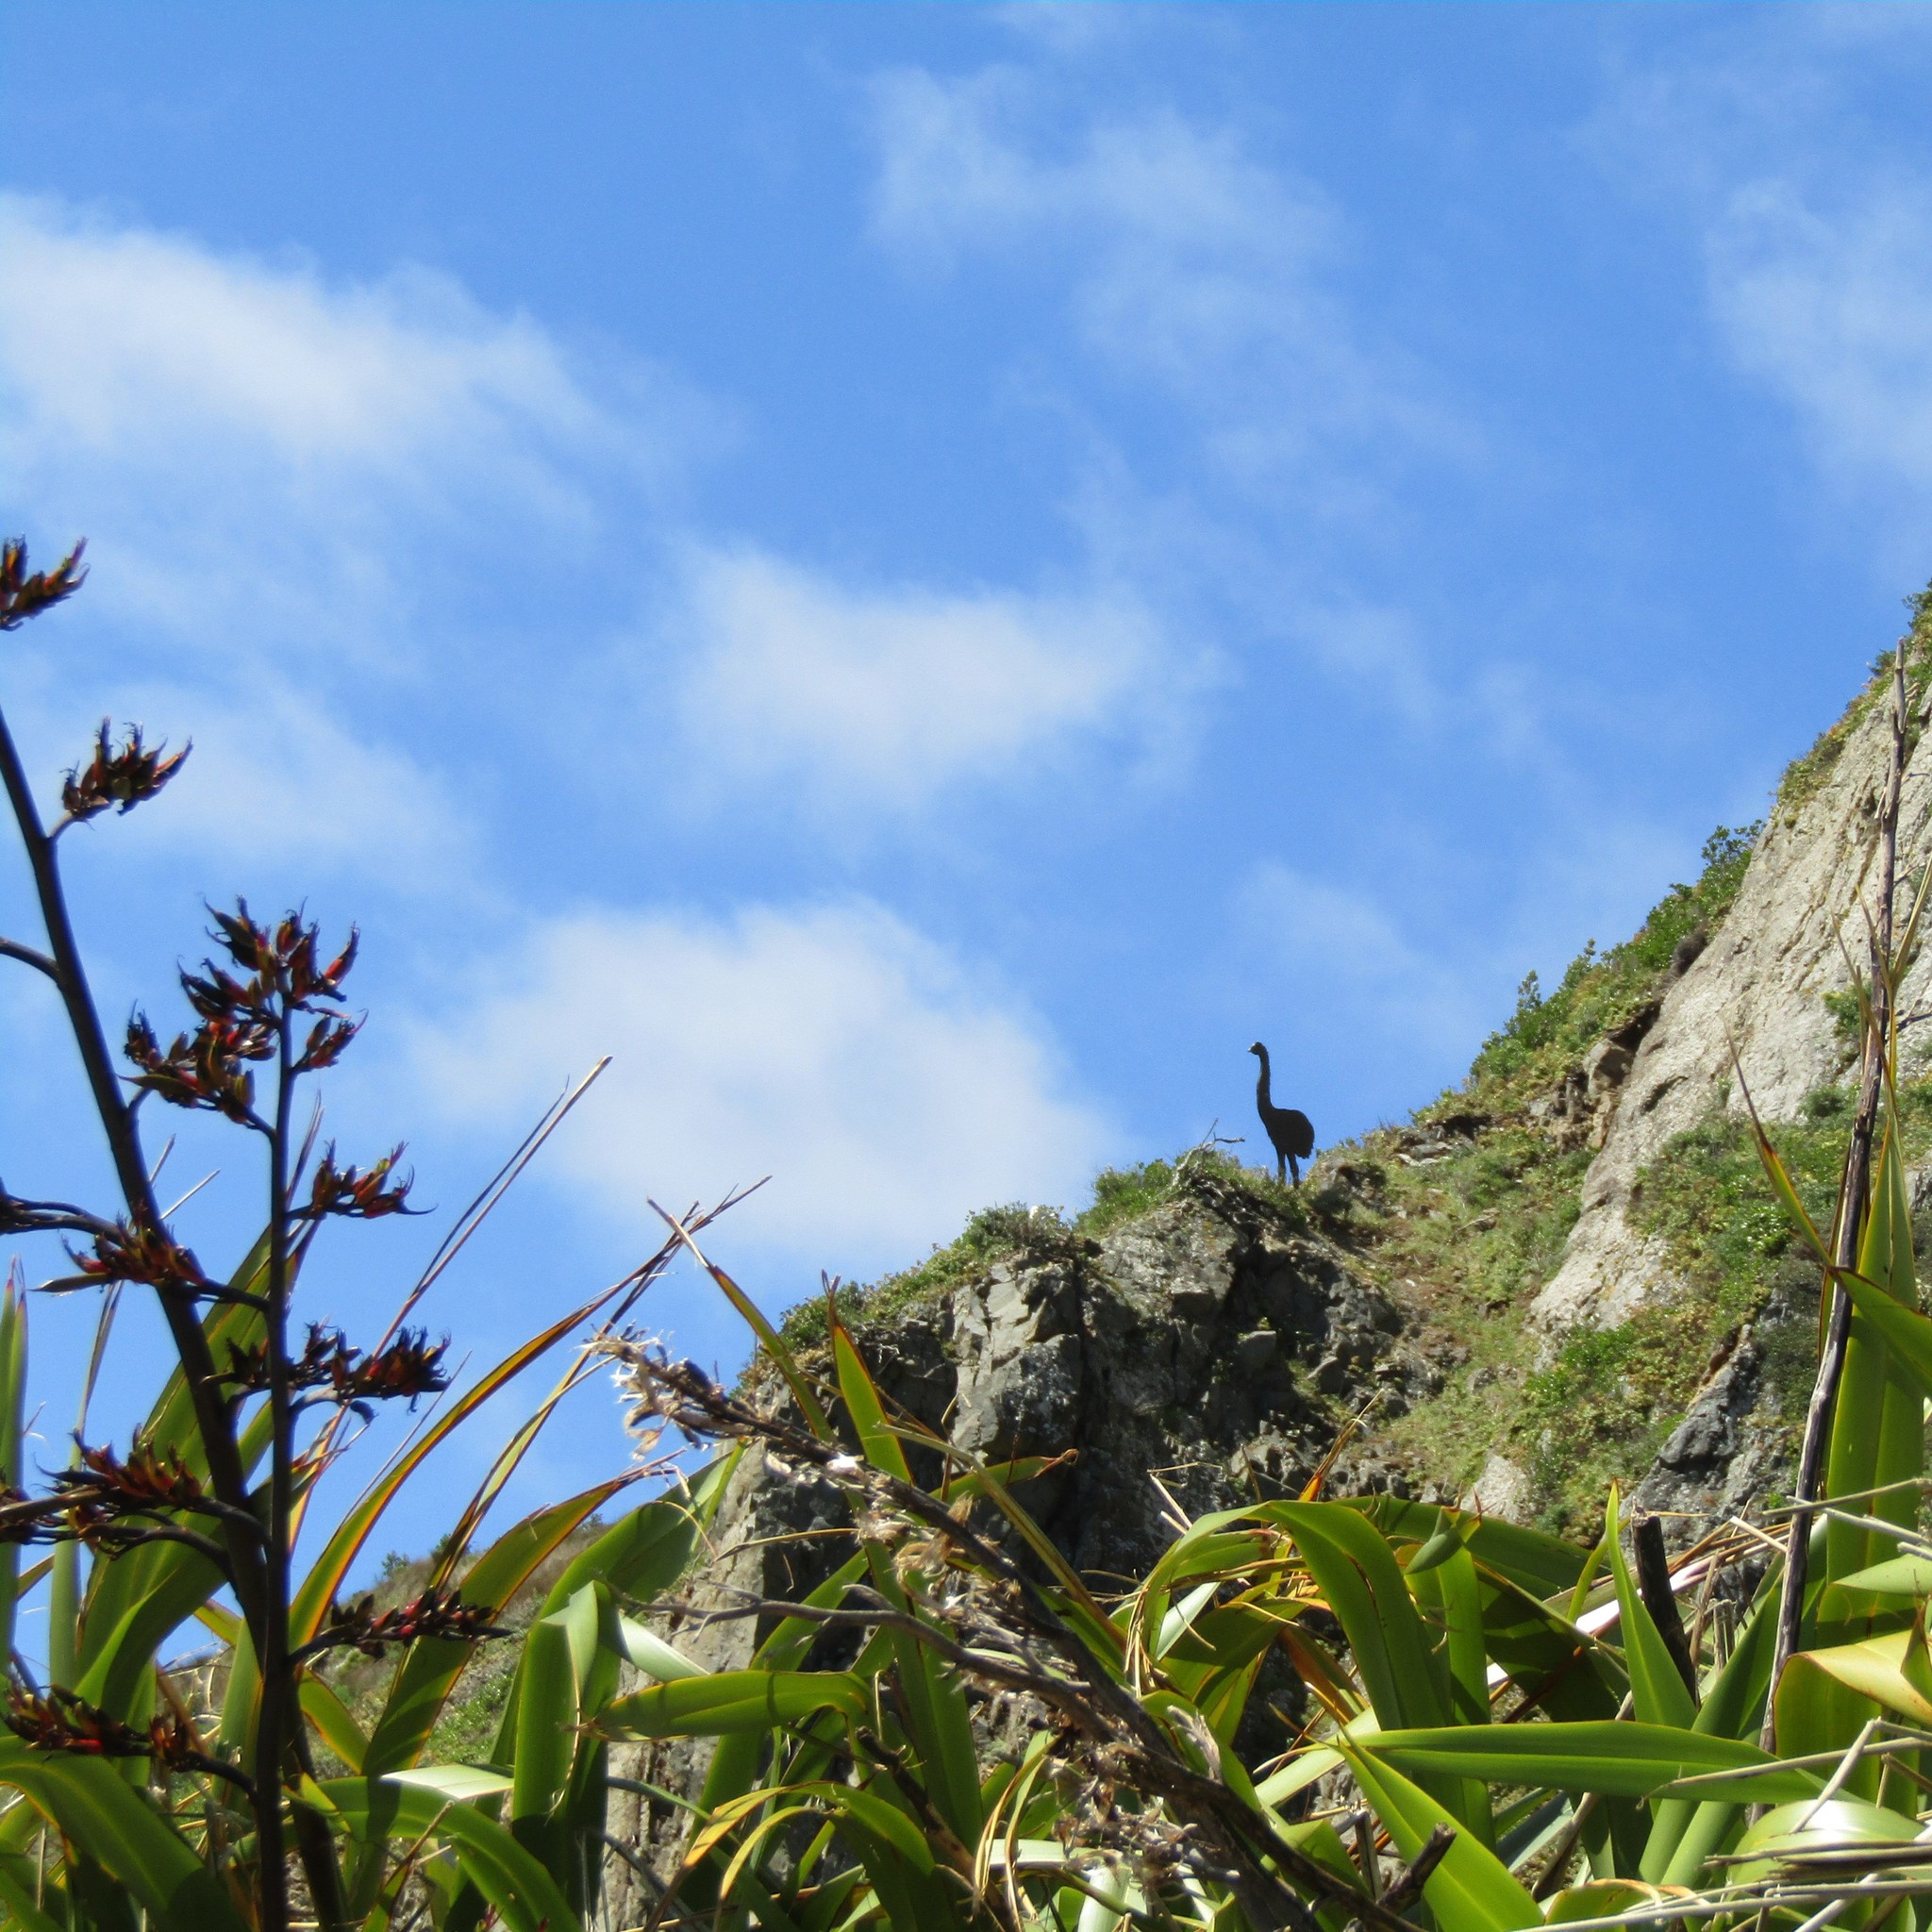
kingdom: Plantae
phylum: Tracheophyta
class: Liliopsida
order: Asparagales
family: Asphodelaceae
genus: Phormium
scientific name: Phormium tenax
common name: New zealand flax
